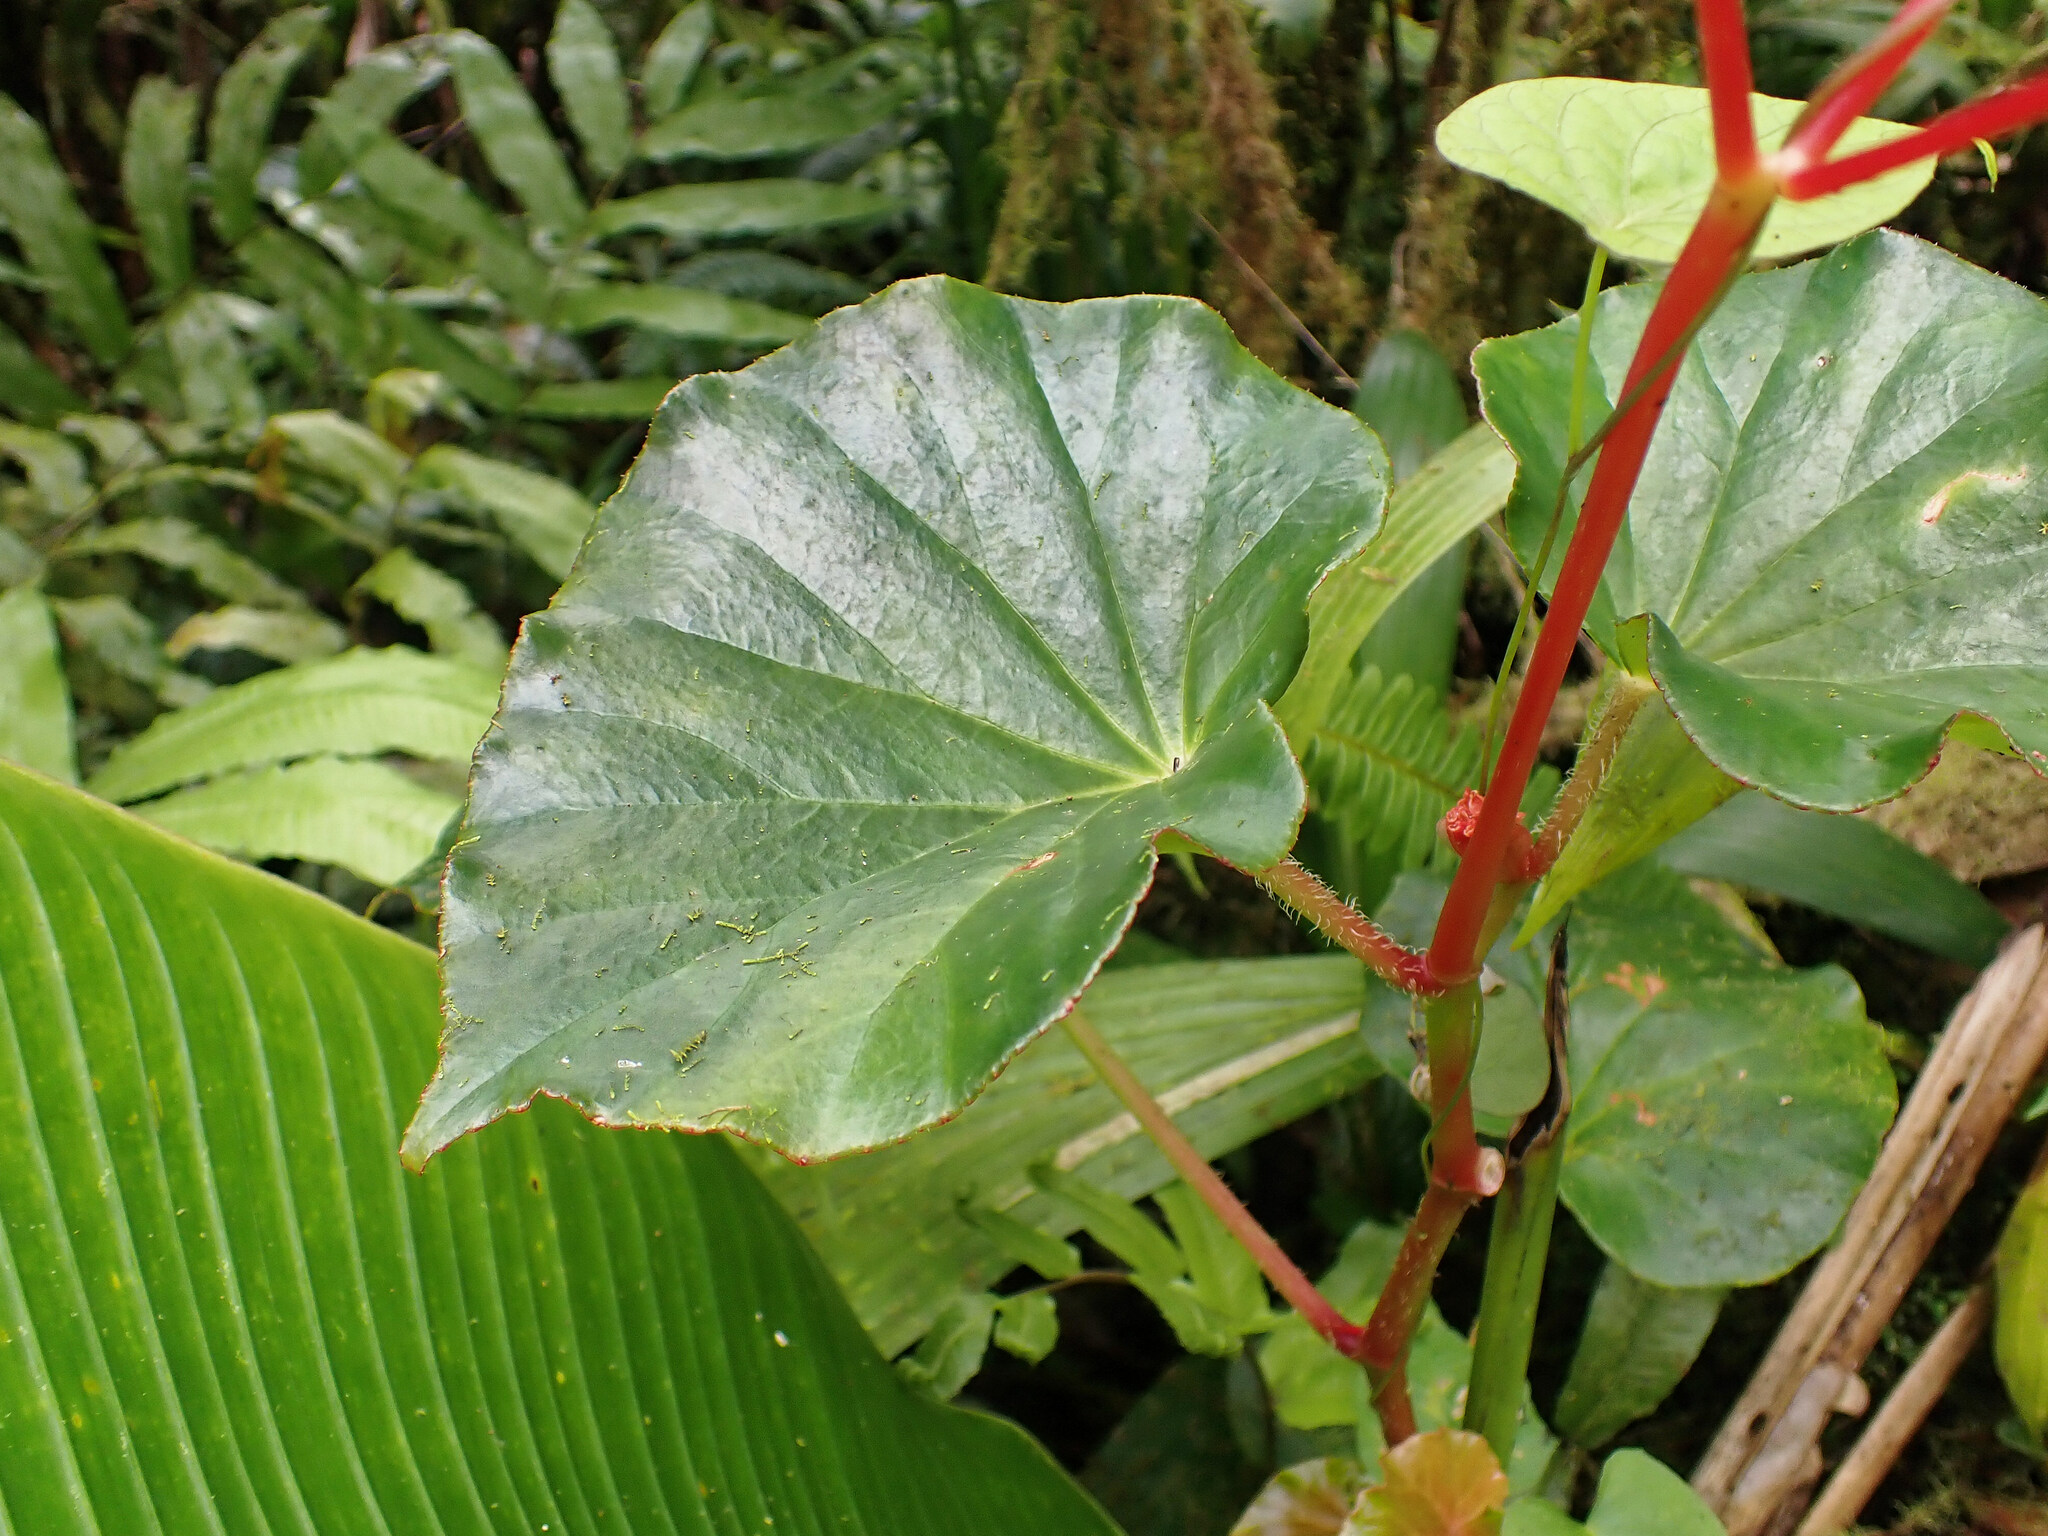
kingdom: Plantae
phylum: Tracheophyta
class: Magnoliopsida
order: Cucurbitales
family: Begoniaceae
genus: Begonia
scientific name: Begonia obliqua
